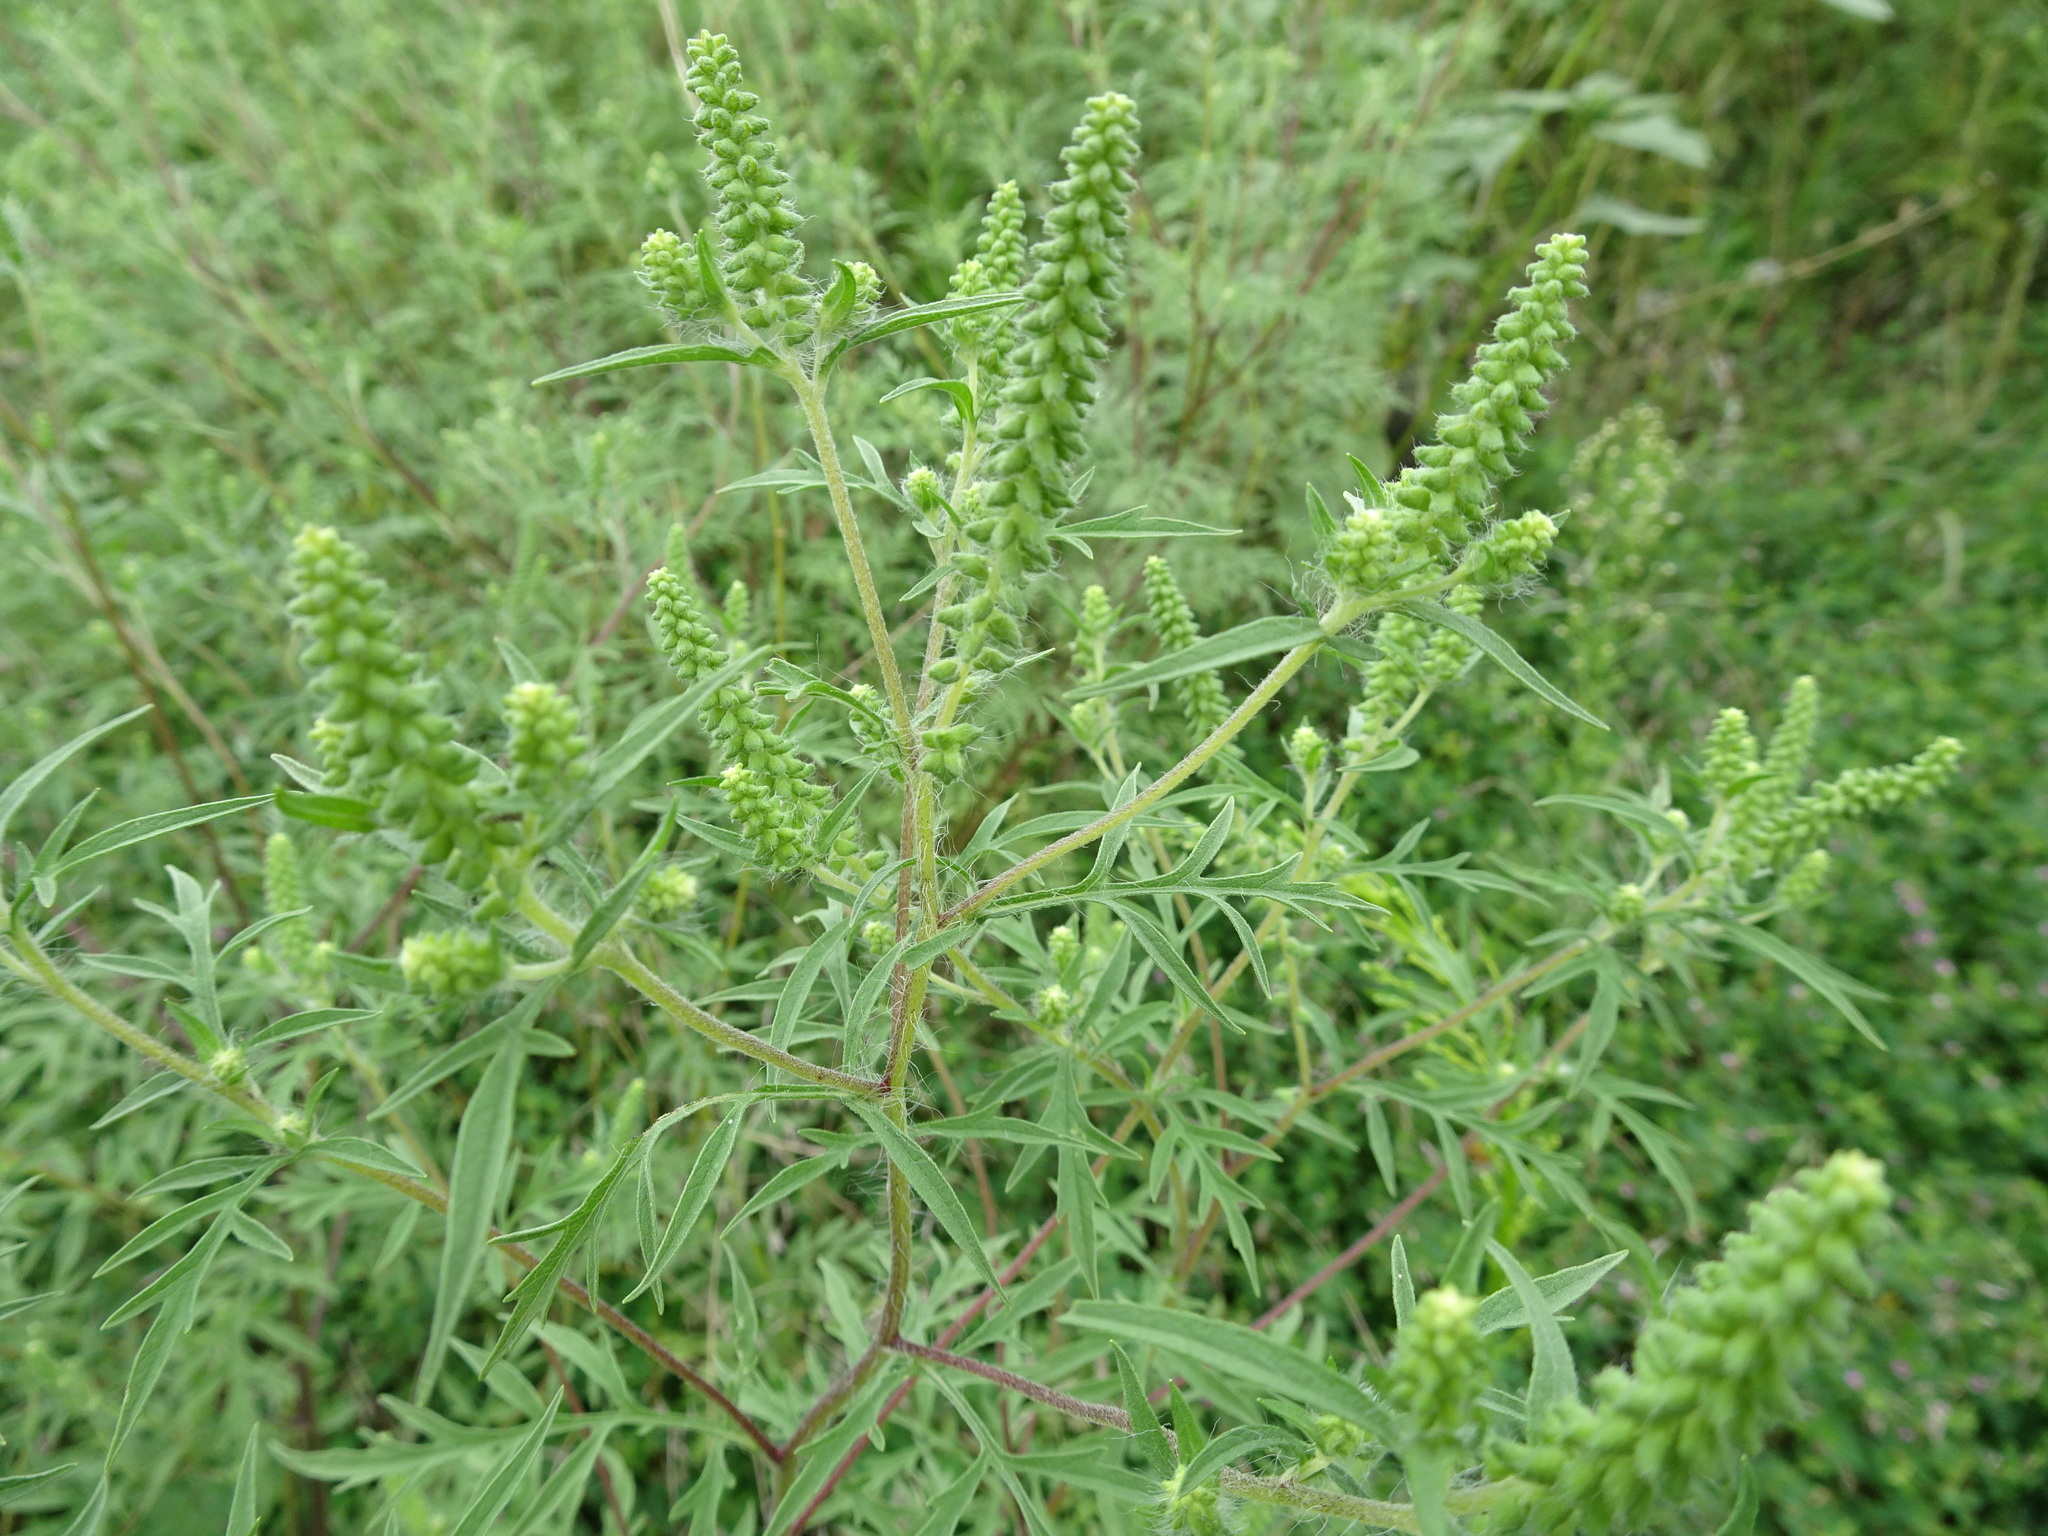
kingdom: Plantae
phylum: Tracheophyta
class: Magnoliopsida
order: Asterales
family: Asteraceae
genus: Ambrosia
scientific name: Ambrosia artemisiifolia
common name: Annual ragweed
